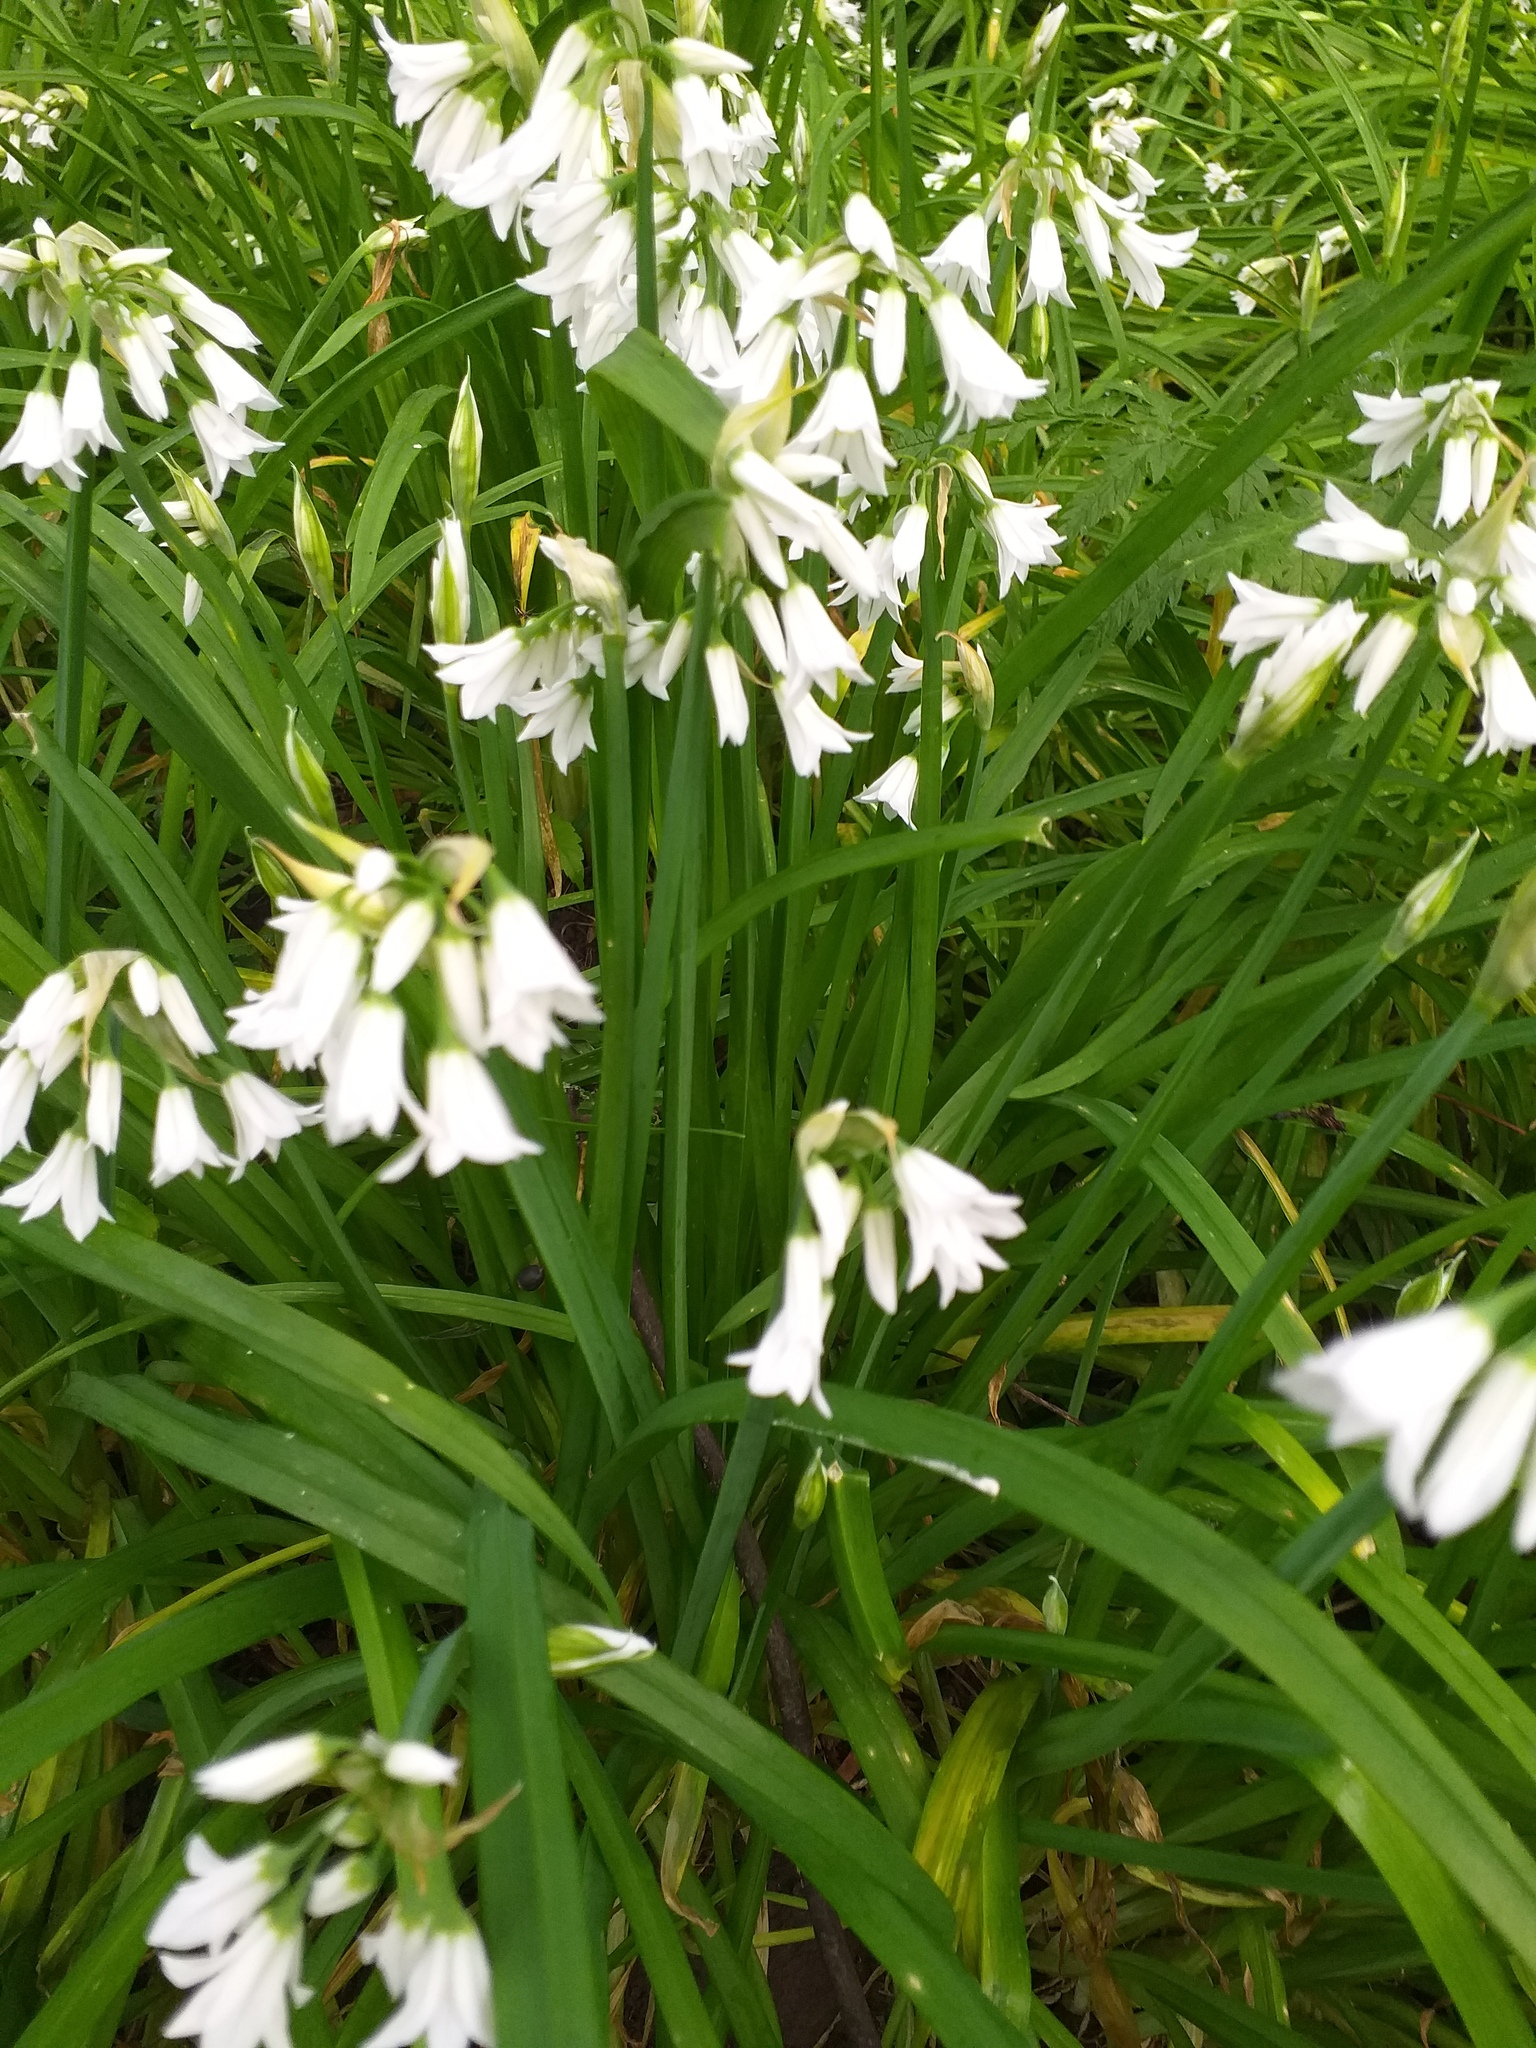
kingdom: Plantae
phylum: Tracheophyta
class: Liliopsida
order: Asparagales
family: Amaryllidaceae
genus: Allium
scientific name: Allium triquetrum
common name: Three-cornered garlic
